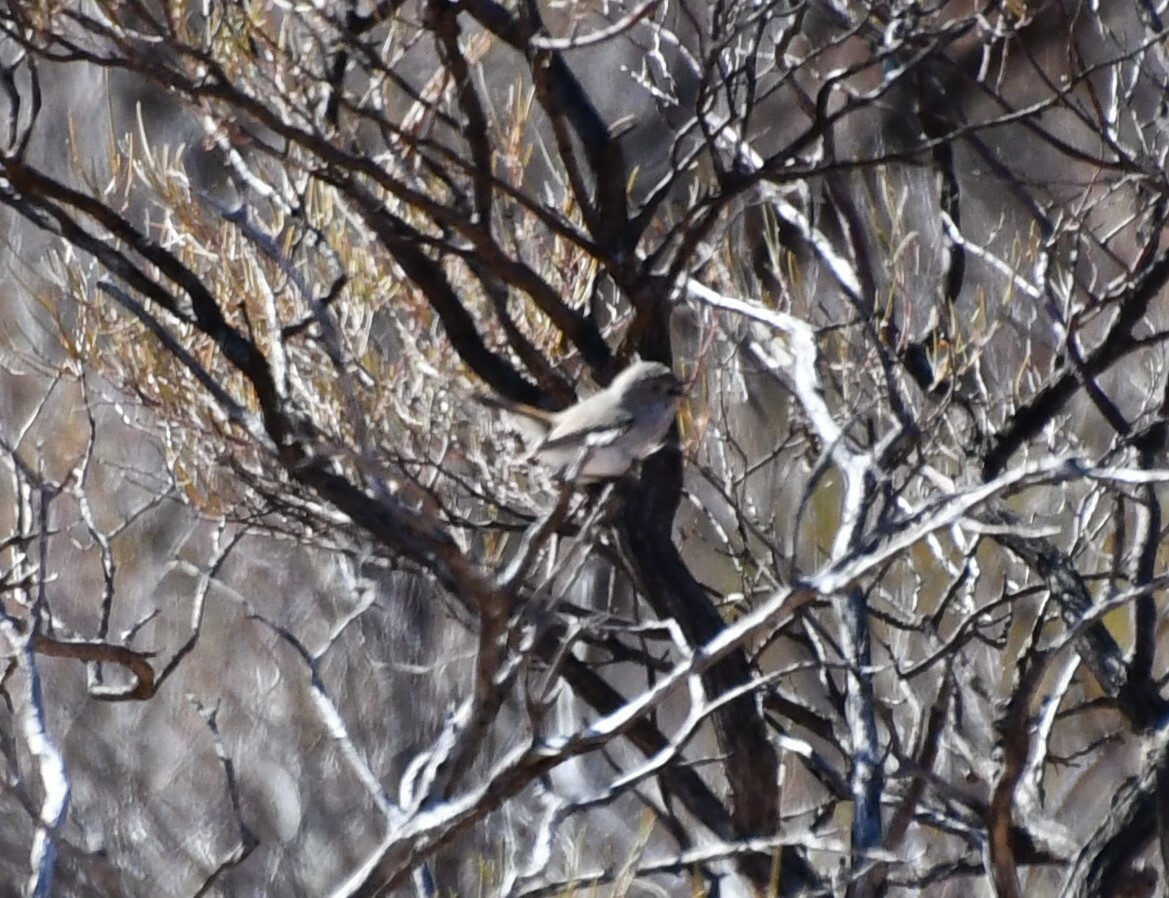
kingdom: Animalia
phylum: Chordata
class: Aves
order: Passeriformes
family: Acanthizidae
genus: Acanthiza
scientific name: Acanthiza apicalis
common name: Inland thornbill
